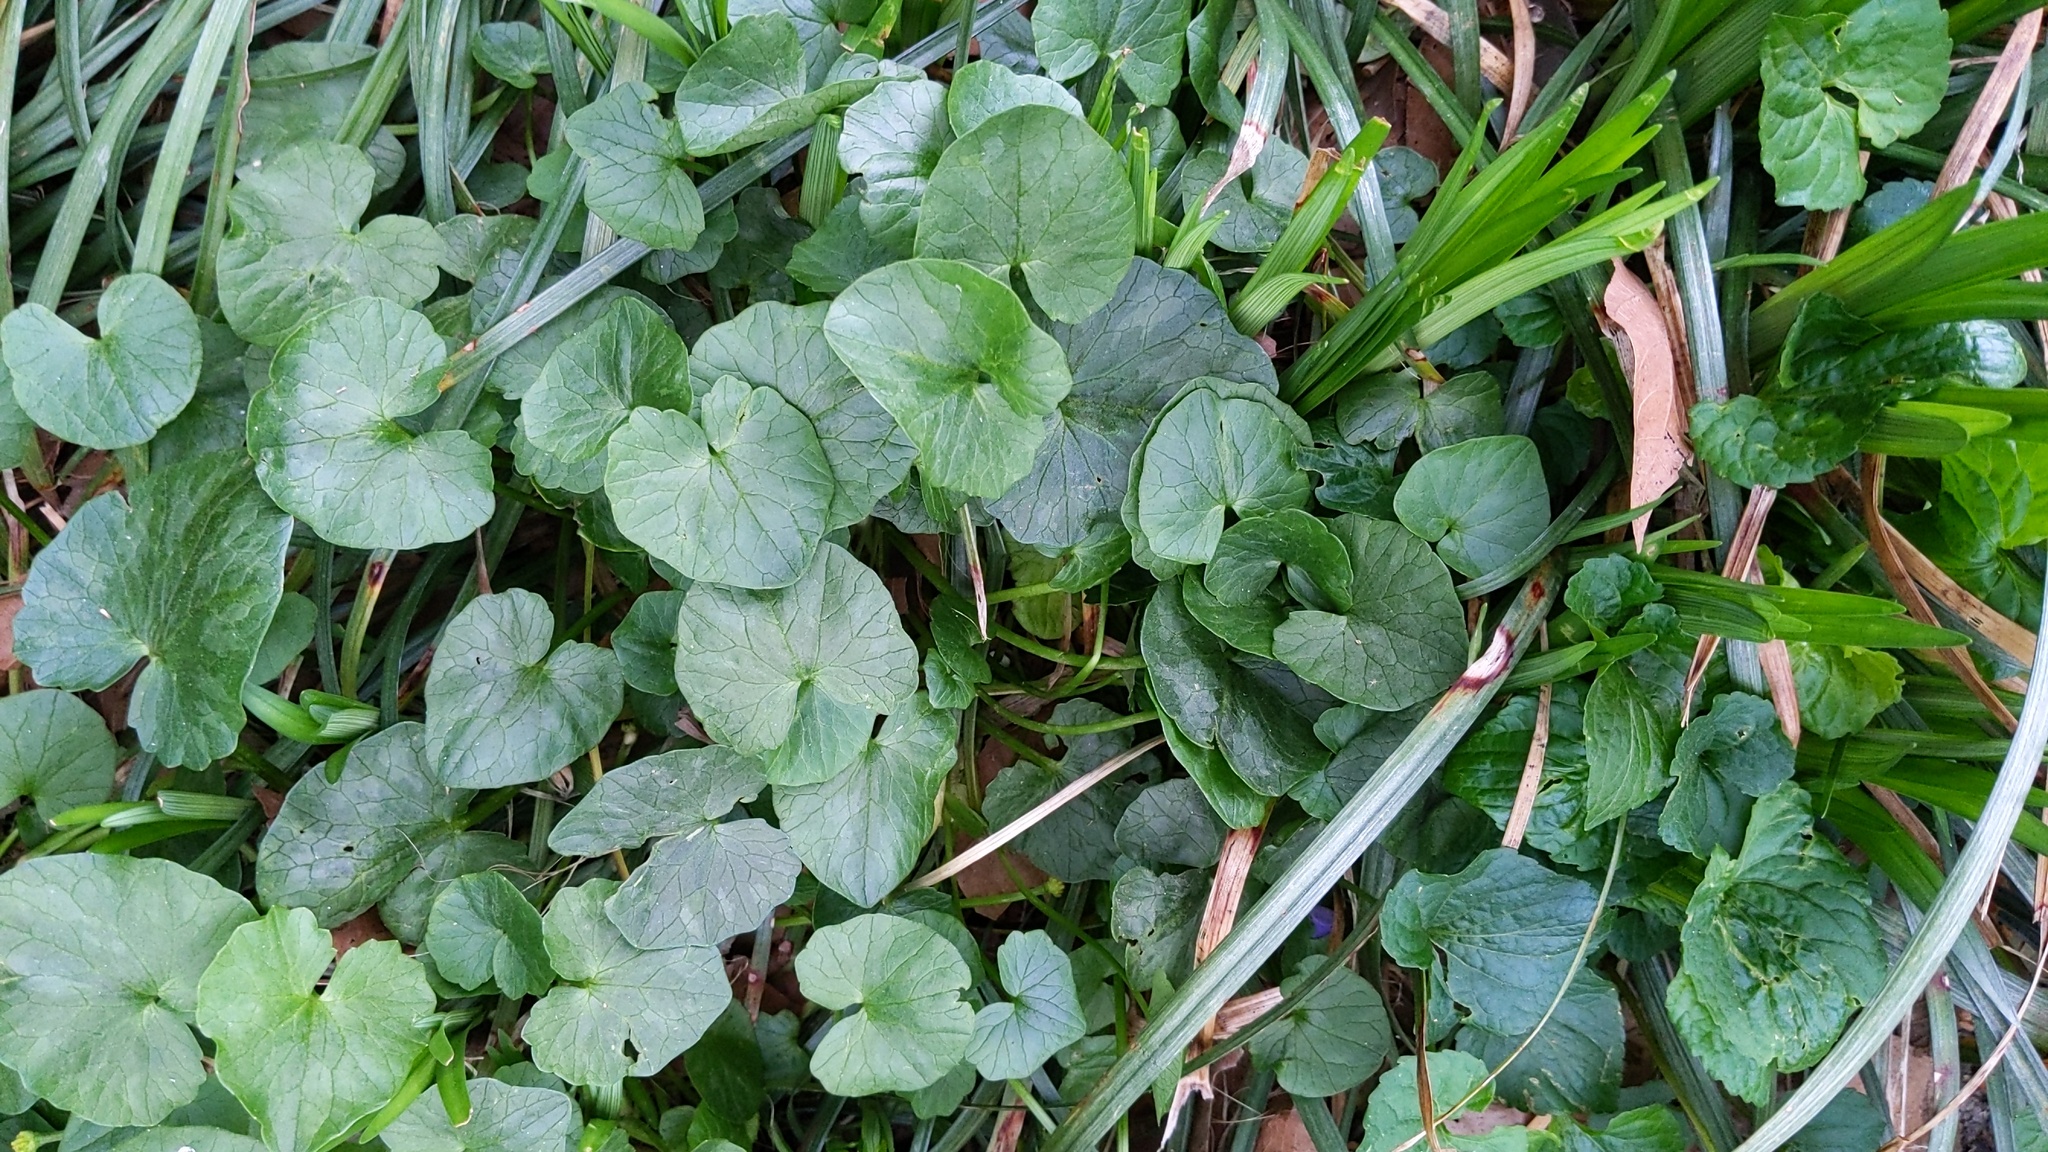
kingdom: Plantae
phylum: Tracheophyta
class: Magnoliopsida
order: Ranunculales
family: Ranunculaceae
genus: Ficaria
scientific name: Ficaria verna
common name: Lesser celandine
